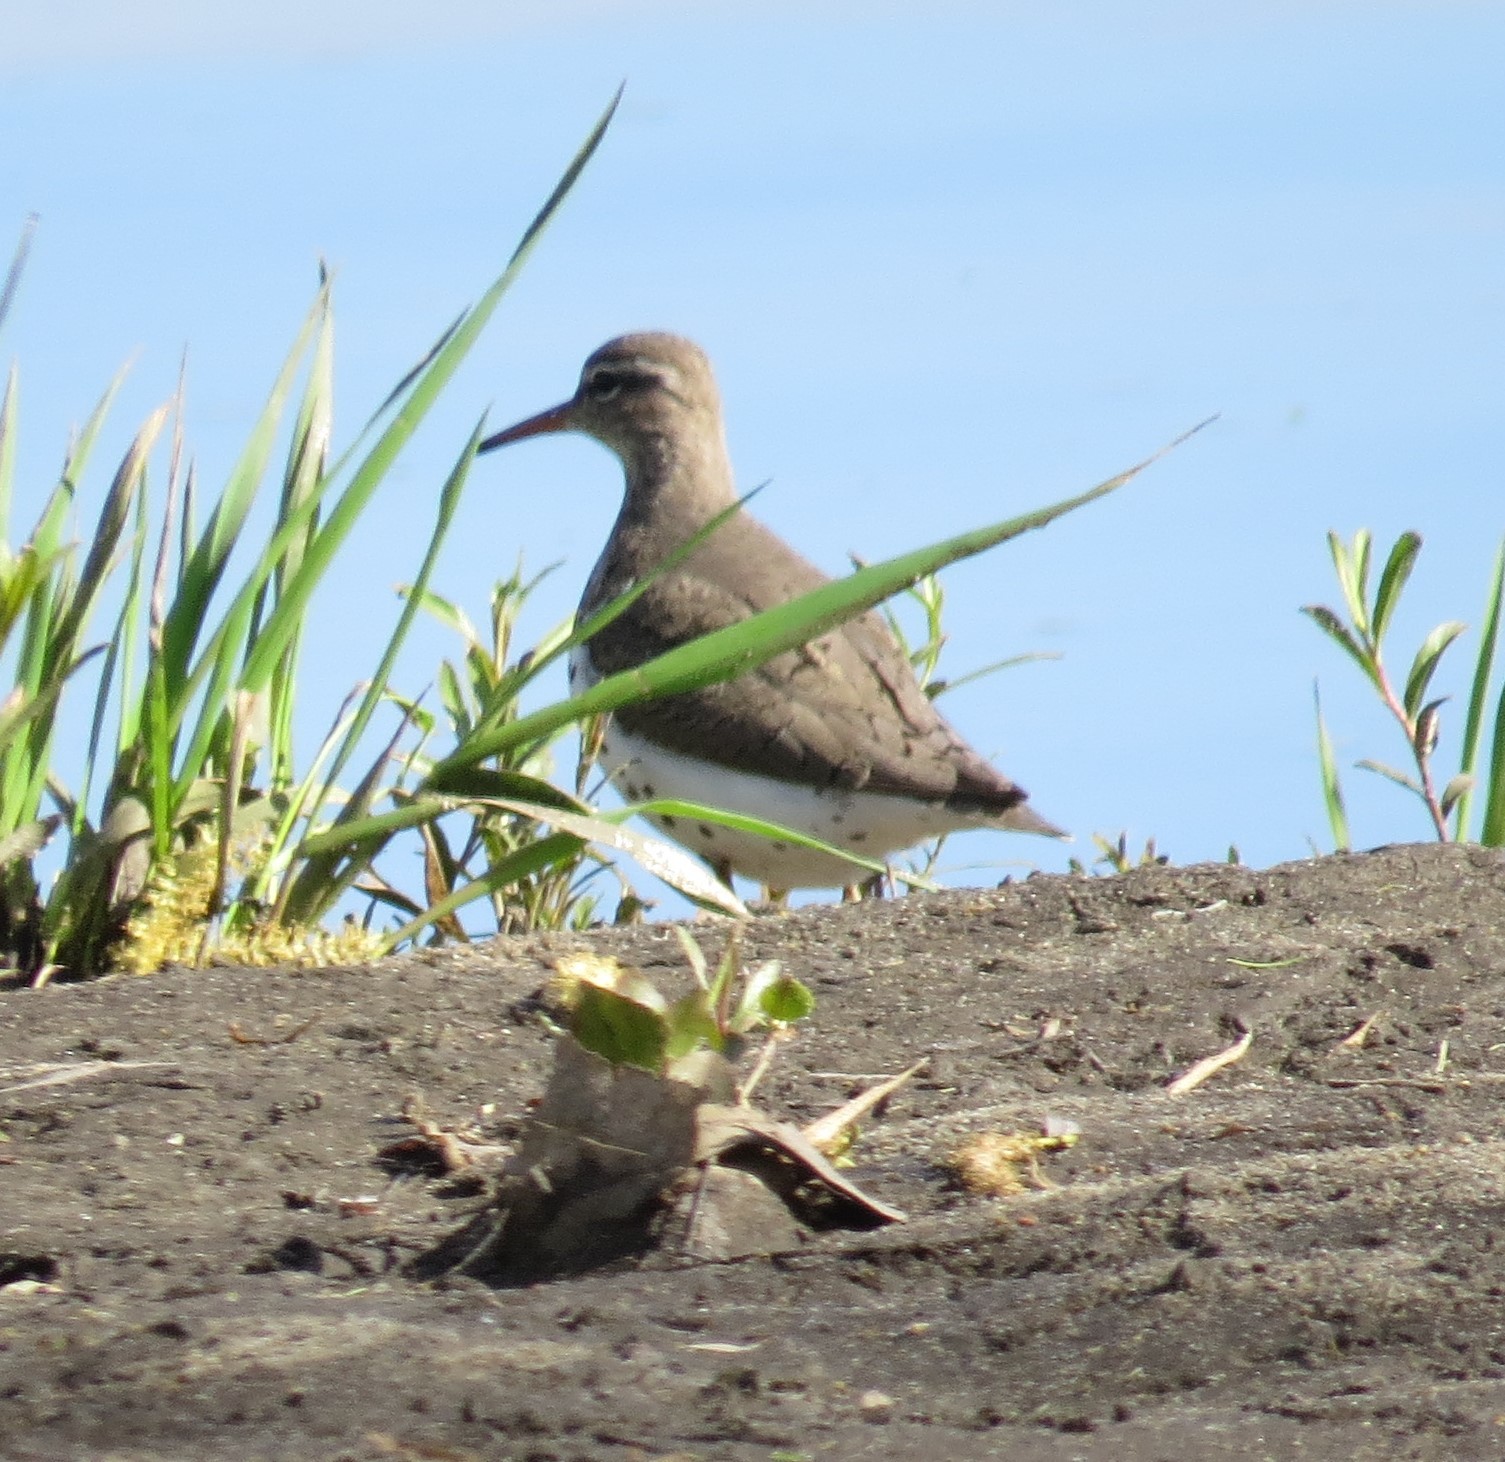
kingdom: Animalia
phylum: Chordata
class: Aves
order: Charadriiformes
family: Scolopacidae
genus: Actitis
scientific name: Actitis macularius
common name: Spotted sandpiper
